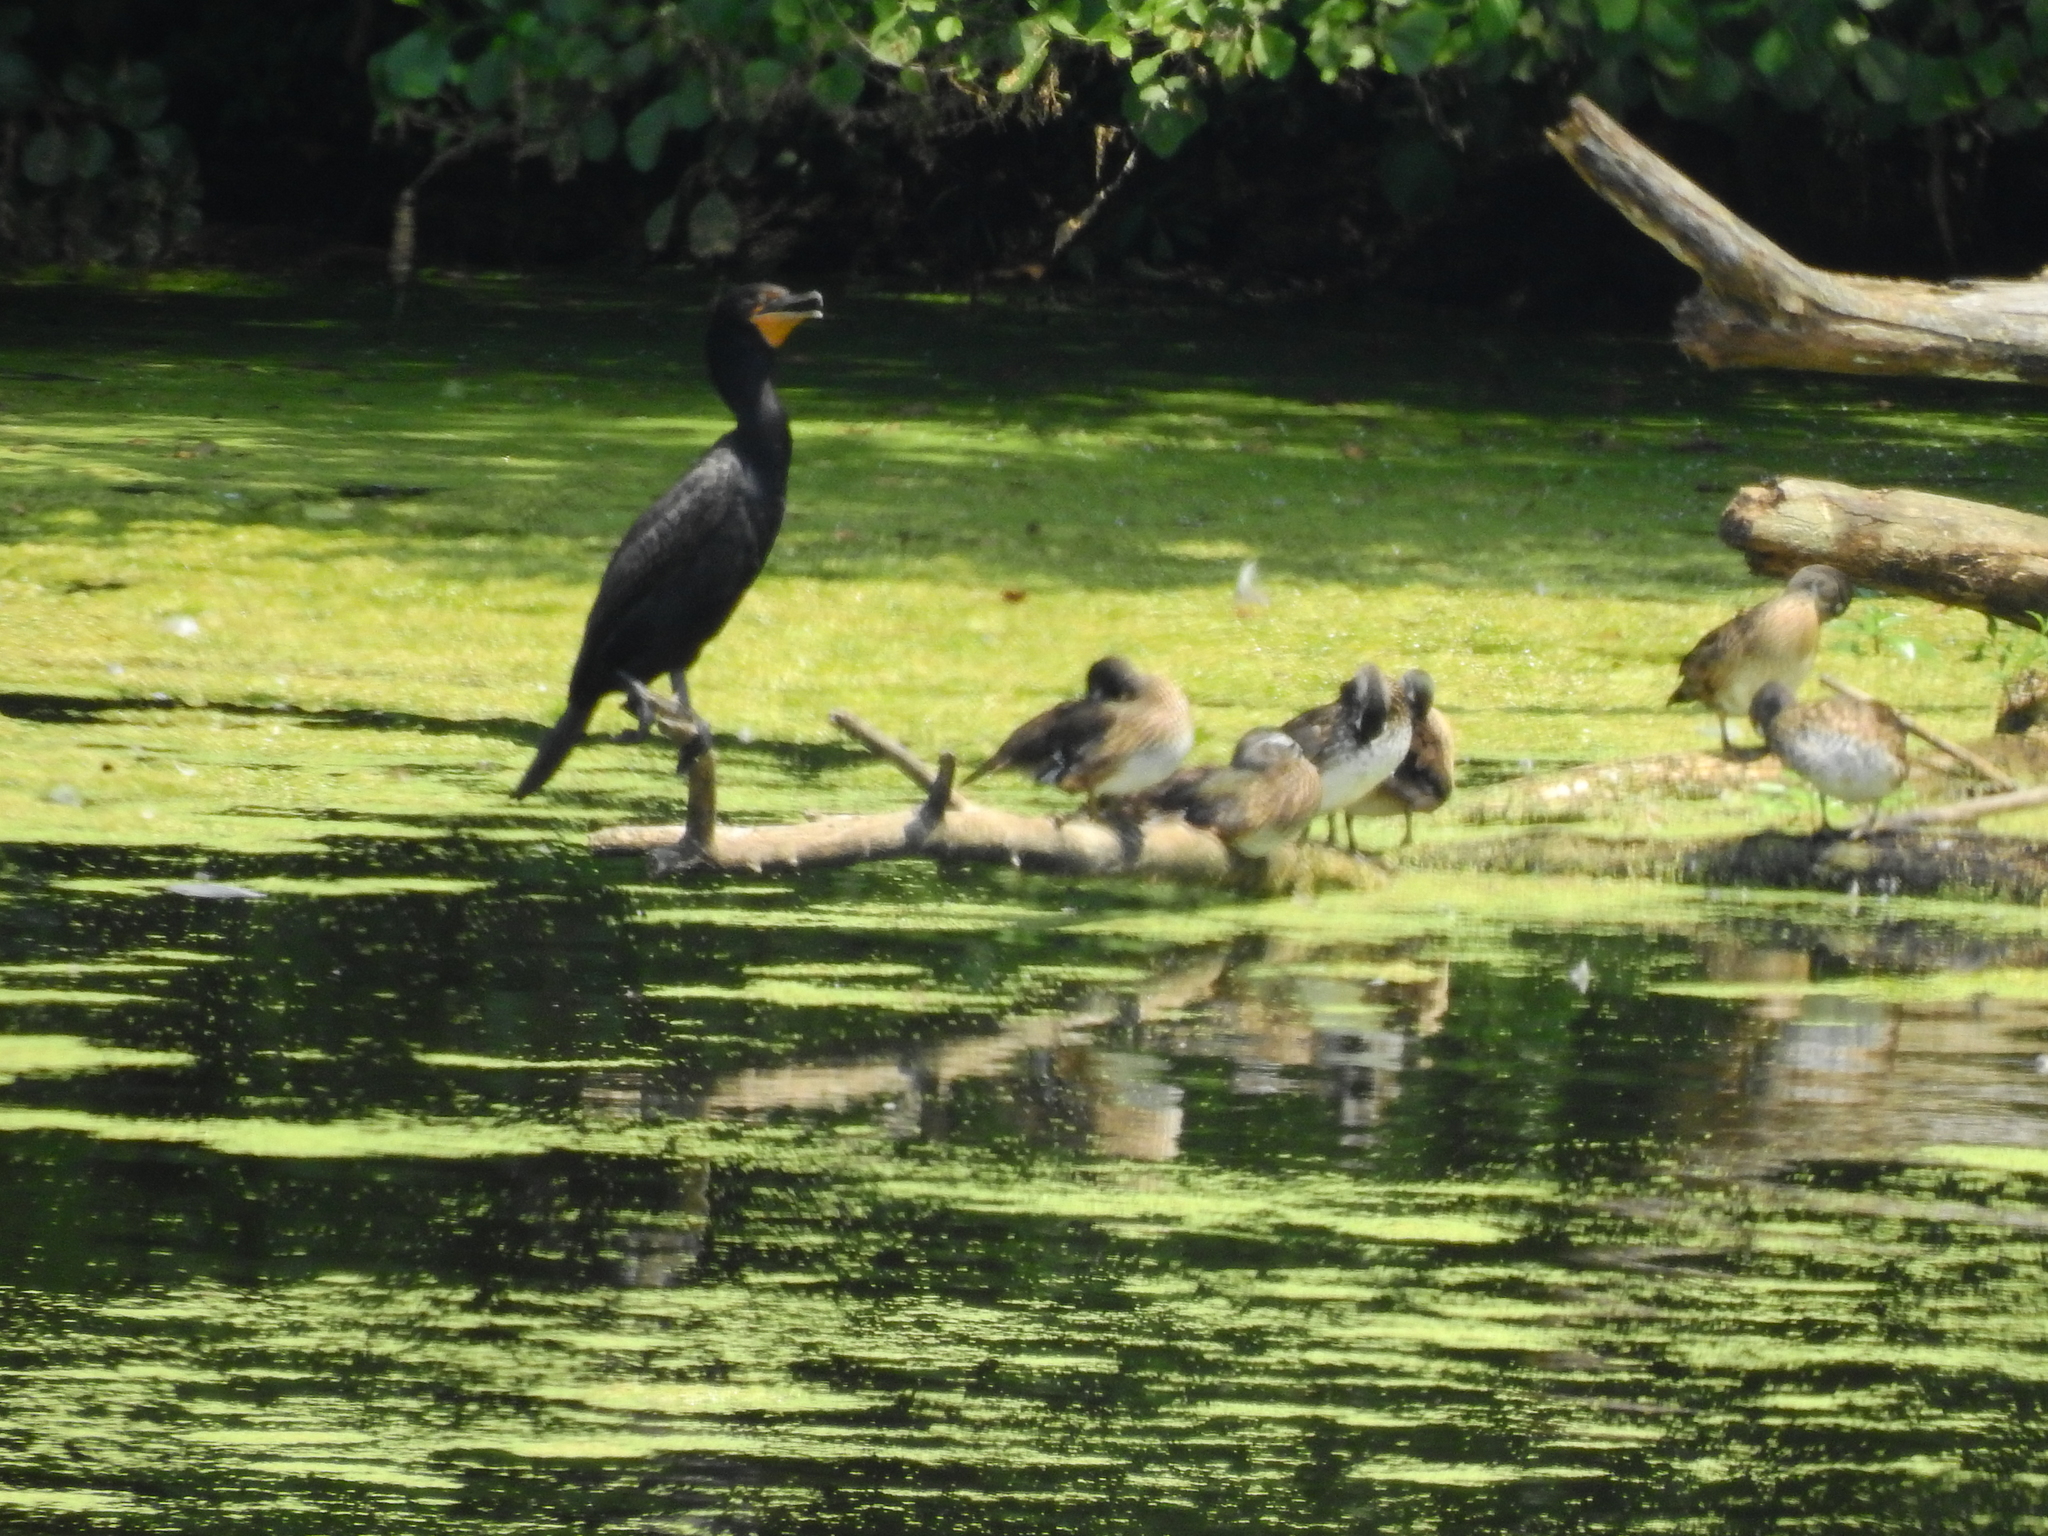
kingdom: Animalia
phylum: Chordata
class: Aves
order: Suliformes
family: Phalacrocoracidae
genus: Phalacrocorax
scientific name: Phalacrocorax auritus
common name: Double-crested cormorant
